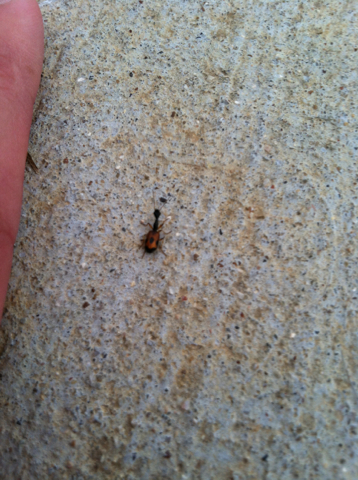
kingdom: Animalia
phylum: Arthropoda
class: Insecta
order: Coleoptera
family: Carabidae
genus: Colliuris
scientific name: Colliuris pensylvanica
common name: Long-necked ground beetle
